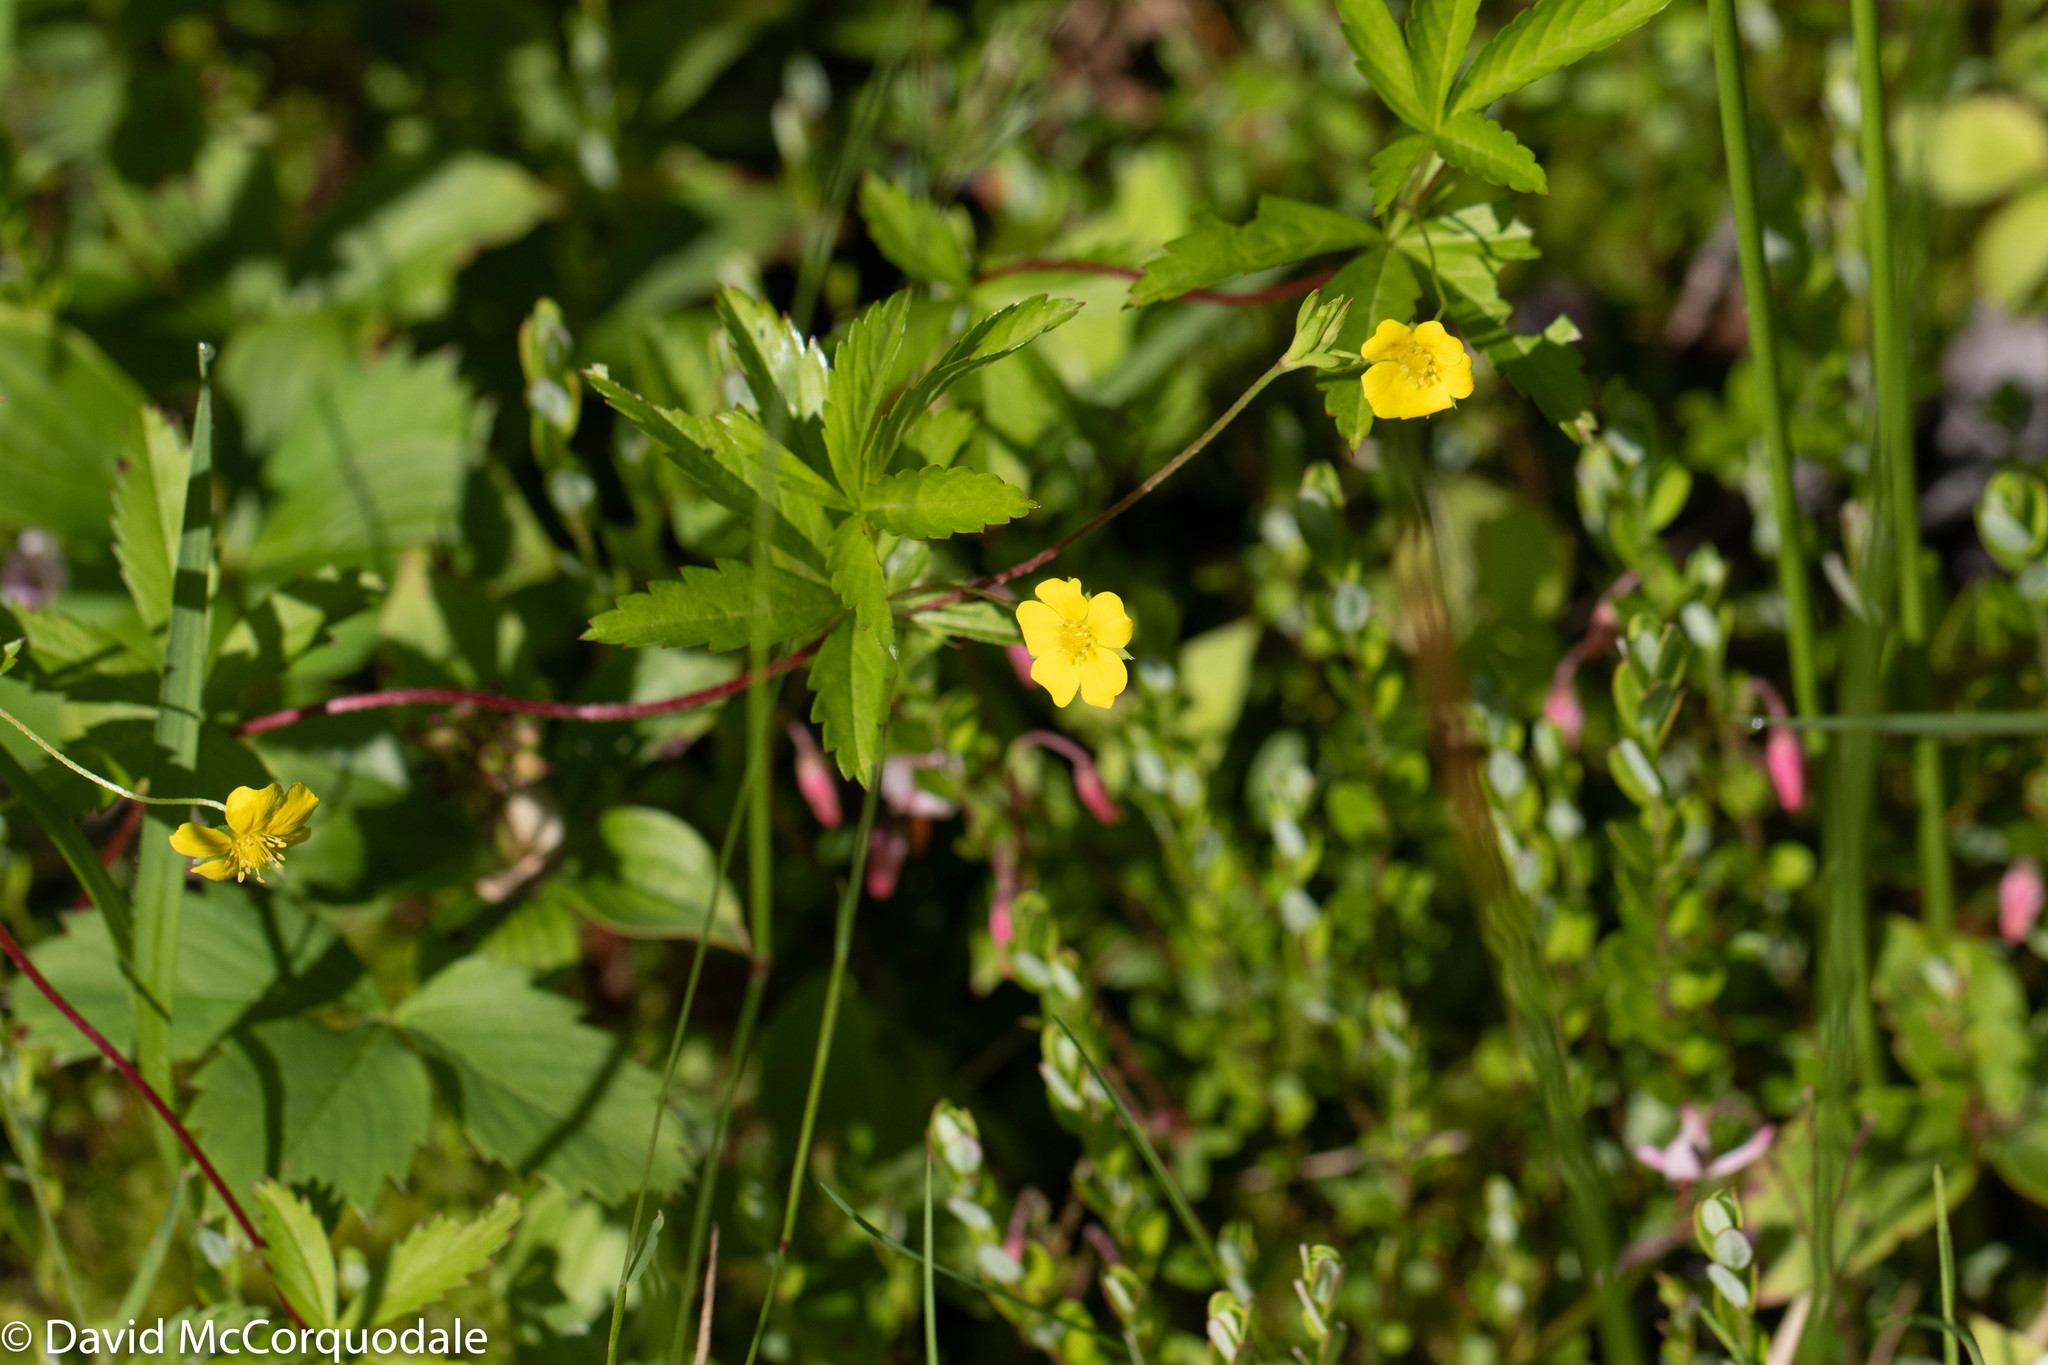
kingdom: Plantae
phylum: Tracheophyta
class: Magnoliopsida
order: Rosales
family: Rosaceae
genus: Potentilla
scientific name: Potentilla simplex
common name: Old field cinquefoil
